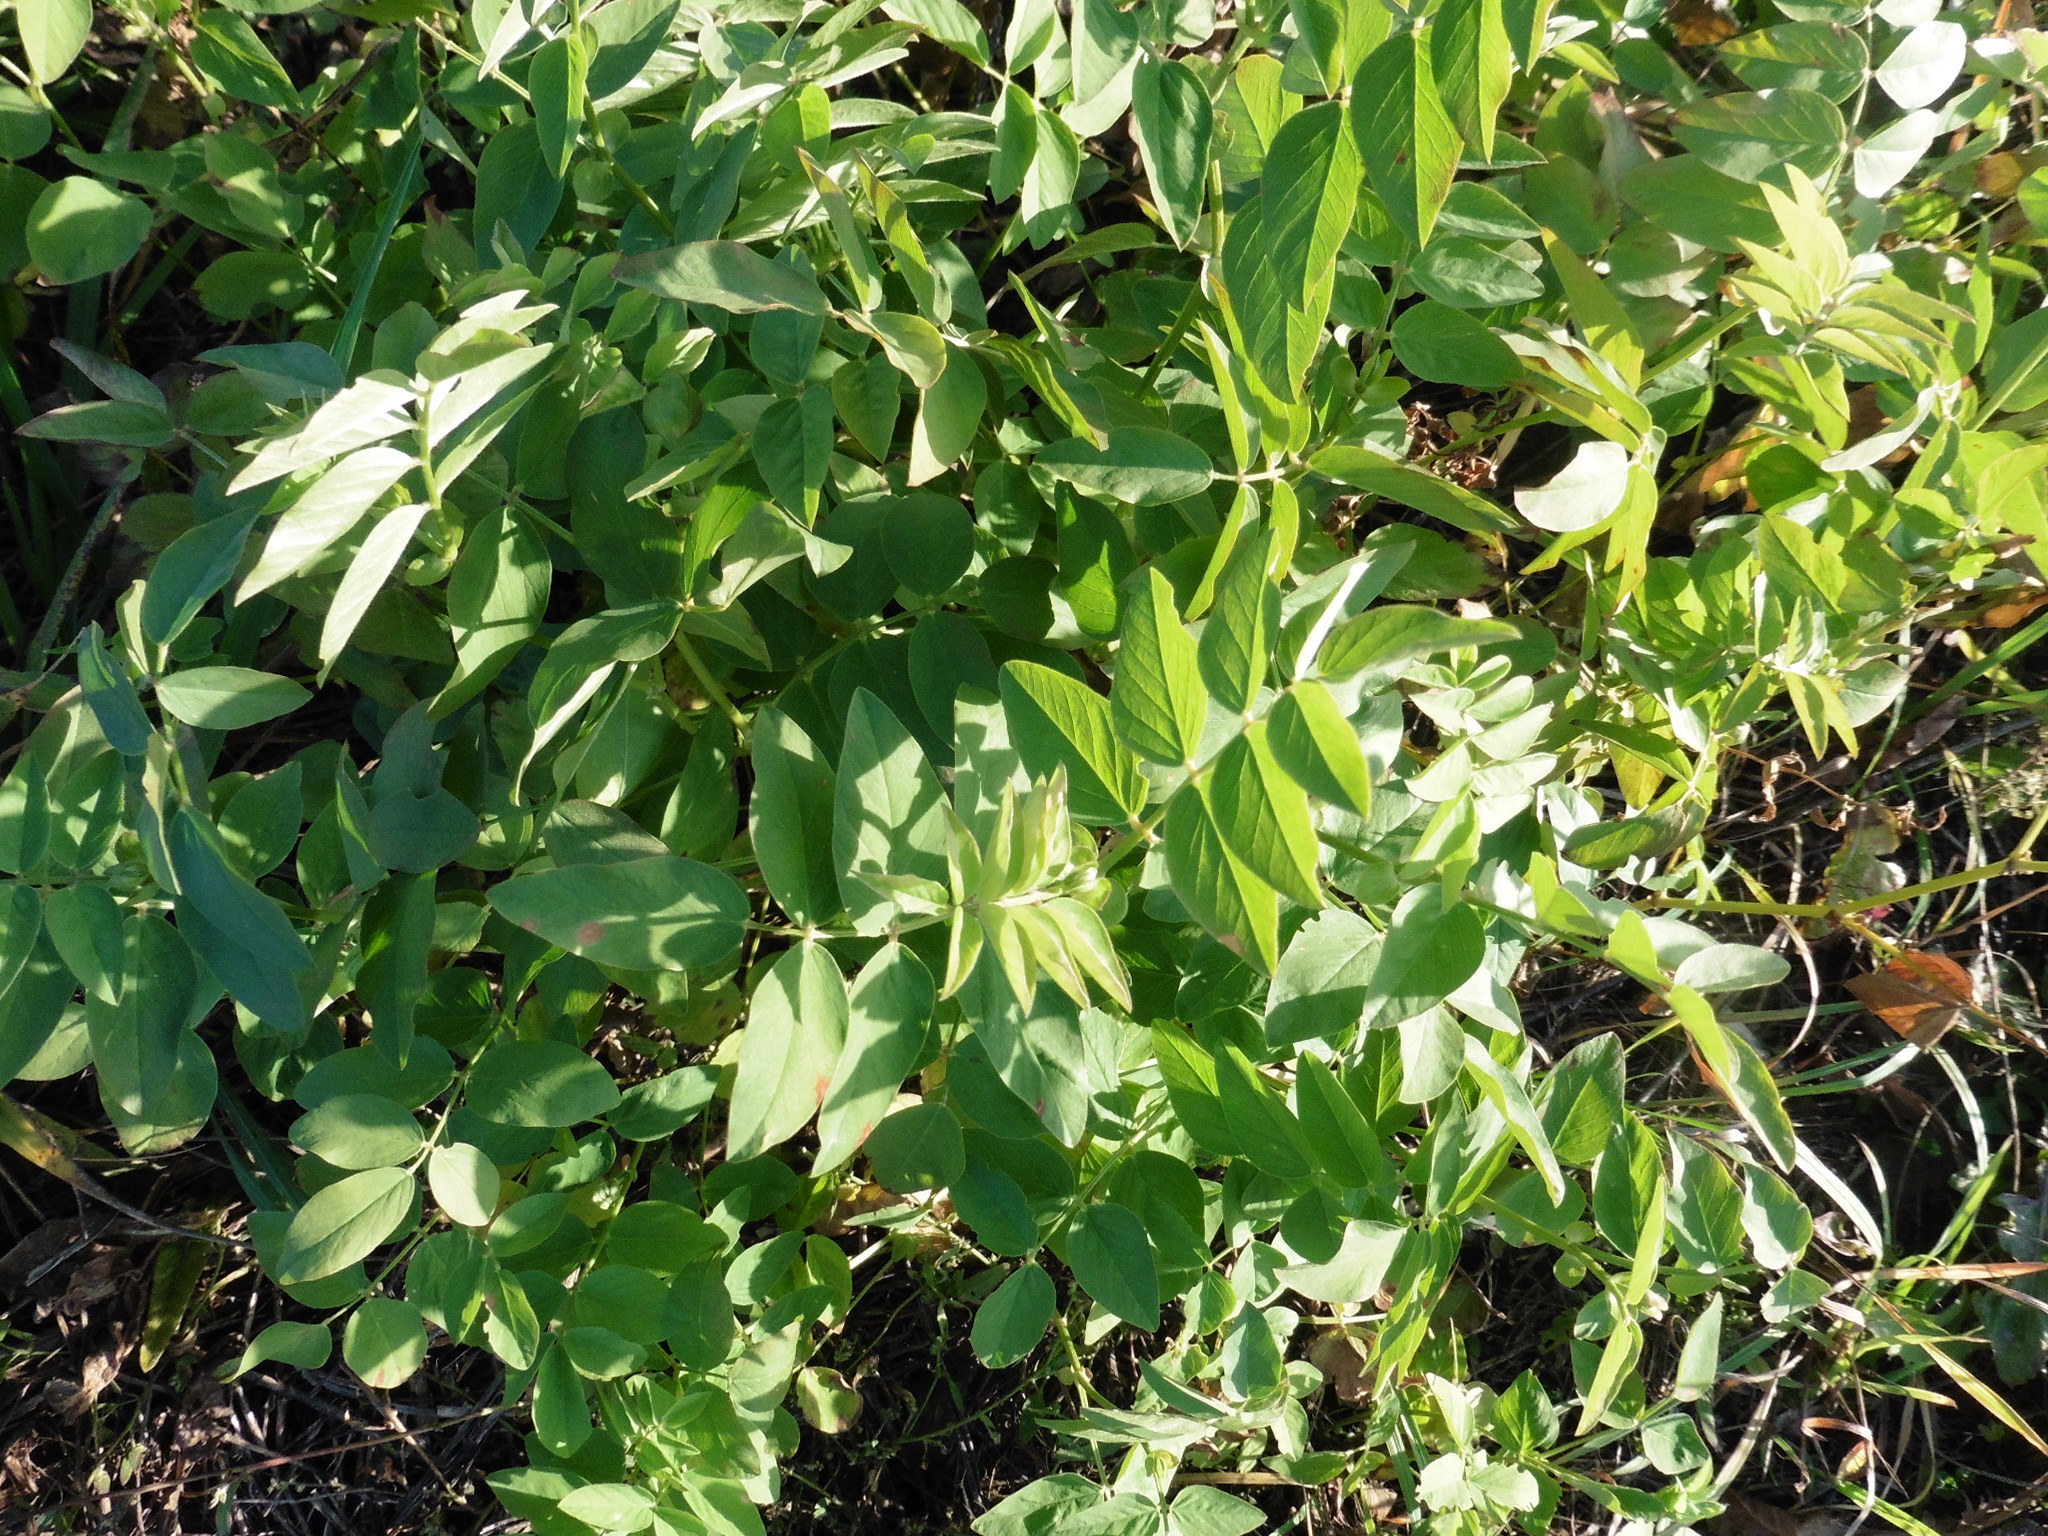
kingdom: Plantae
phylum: Tracheophyta
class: Magnoliopsida
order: Fabales
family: Fabaceae
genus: Galega
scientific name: Galega orientalis
